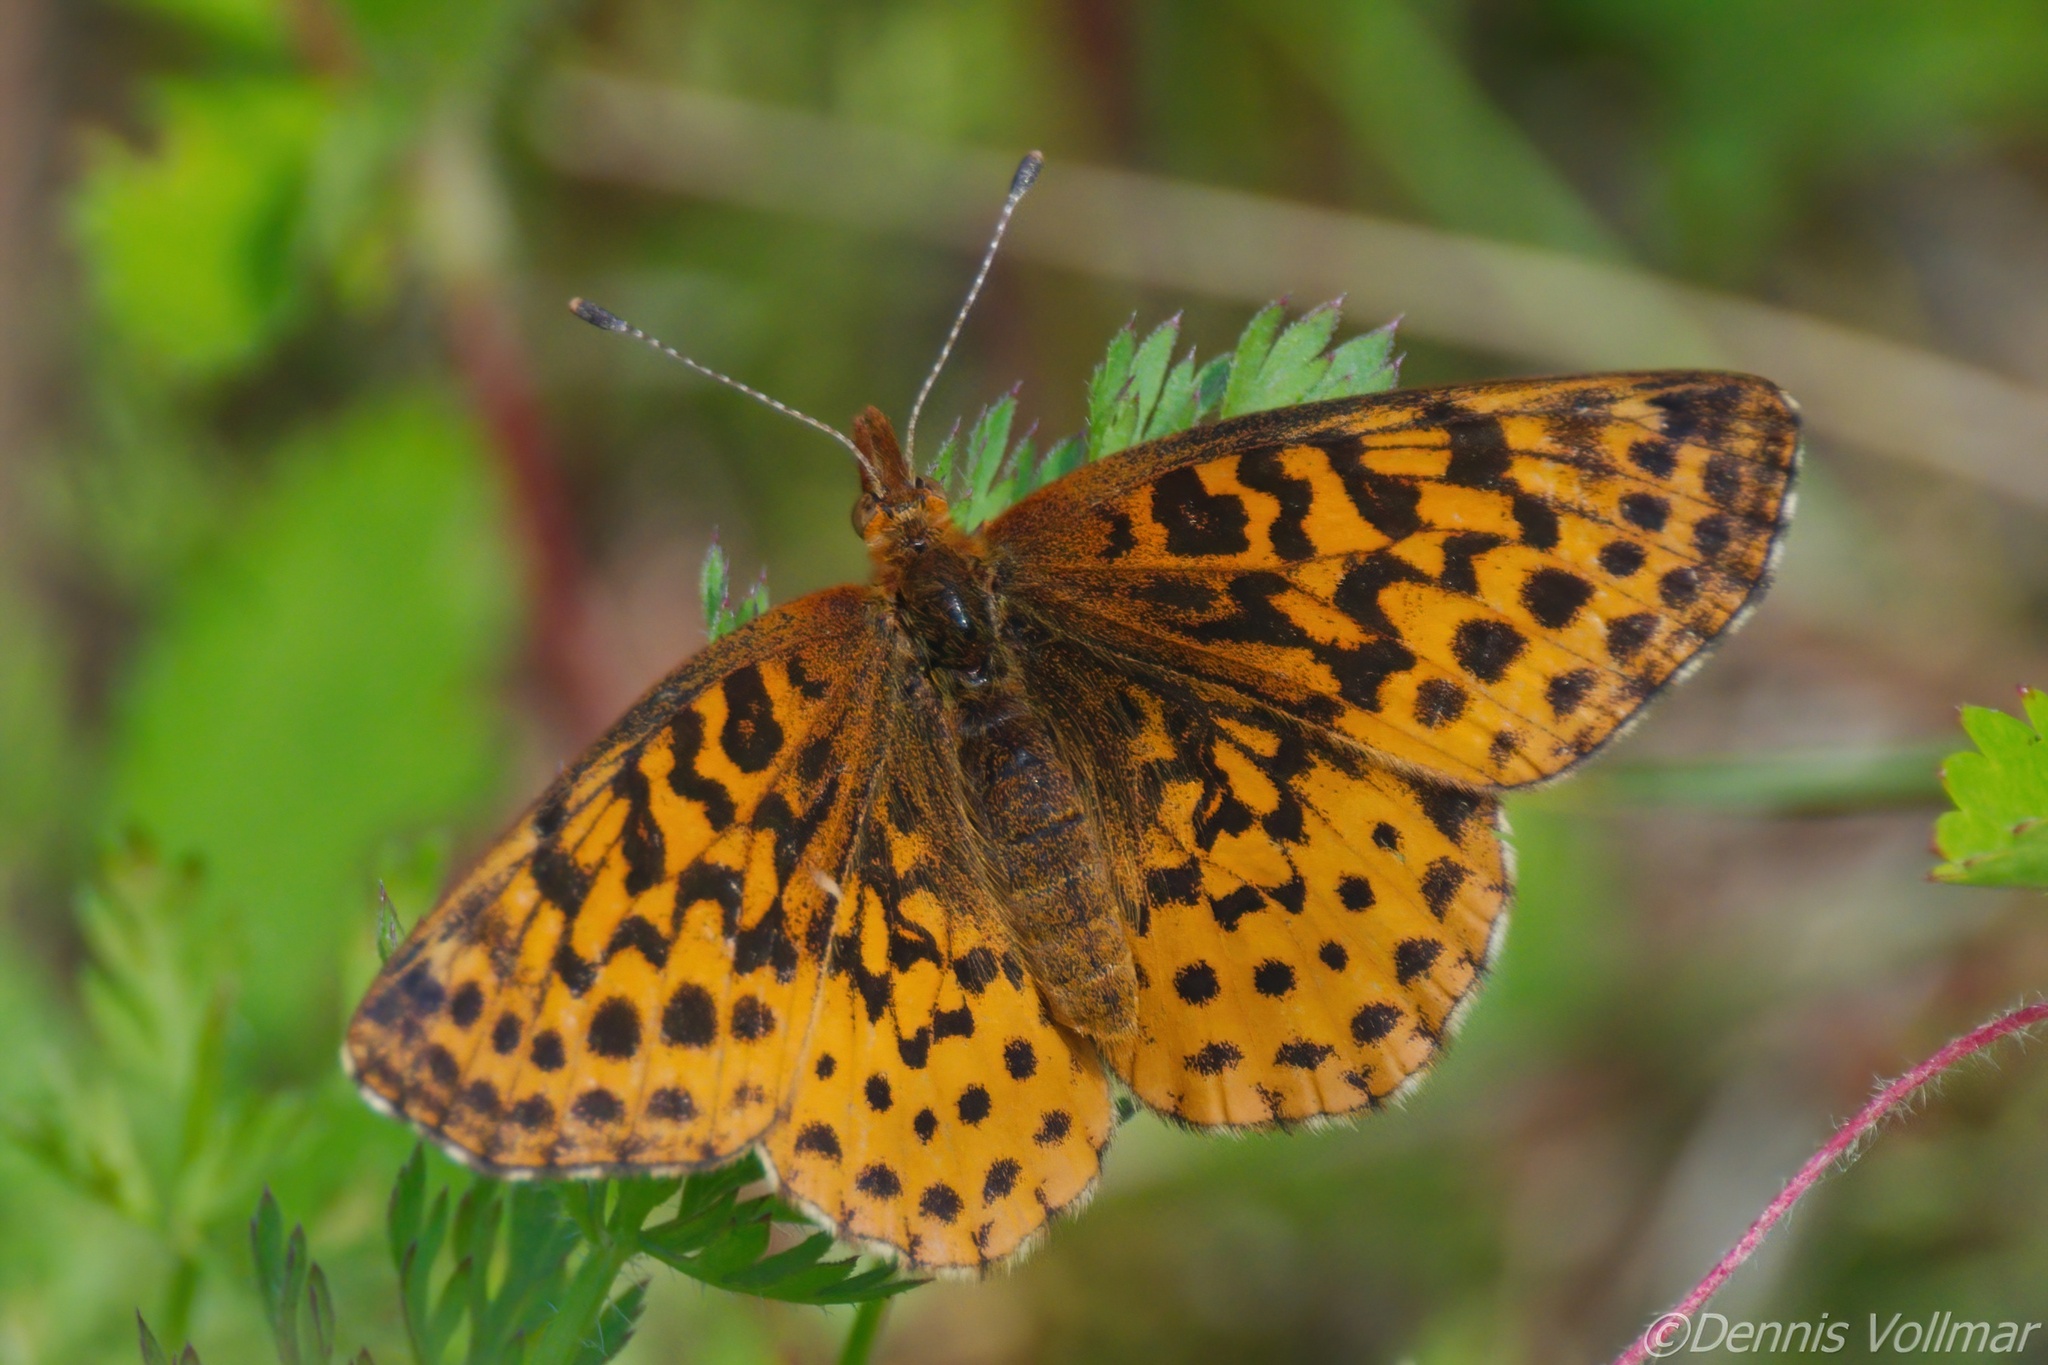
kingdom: Animalia
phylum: Arthropoda
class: Insecta
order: Lepidoptera
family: Nymphalidae
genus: Clossiana
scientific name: Clossiana toddi
